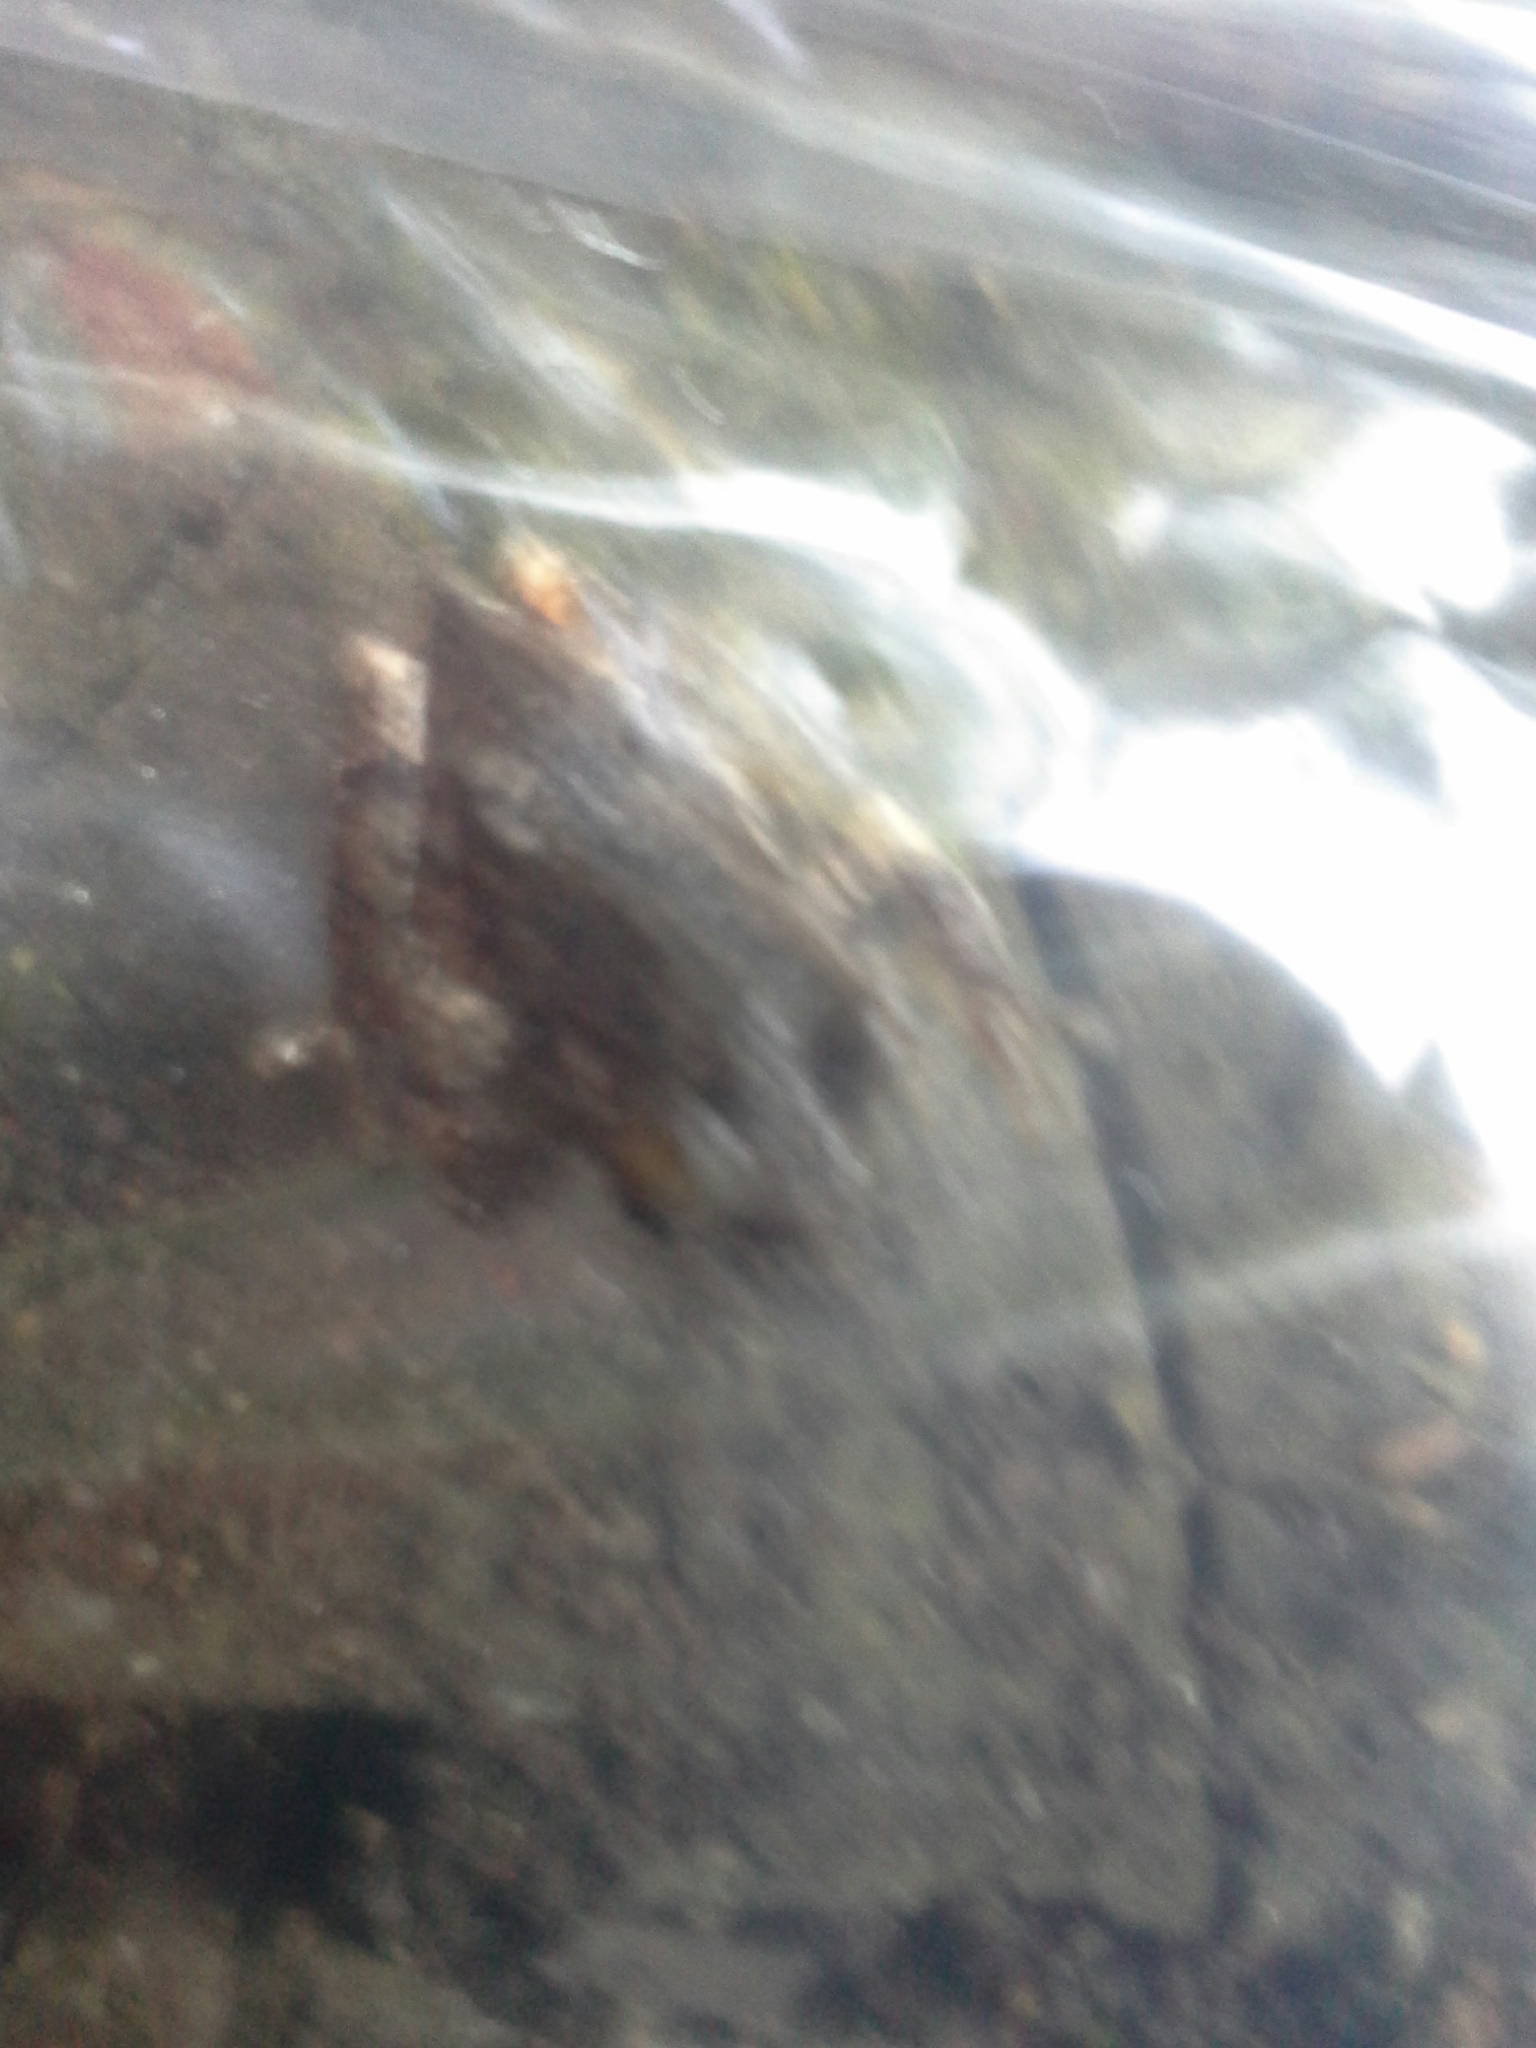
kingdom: Animalia
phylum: Chordata
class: Amphibia
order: Anura
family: Hylidae
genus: Hyla
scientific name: Hyla
